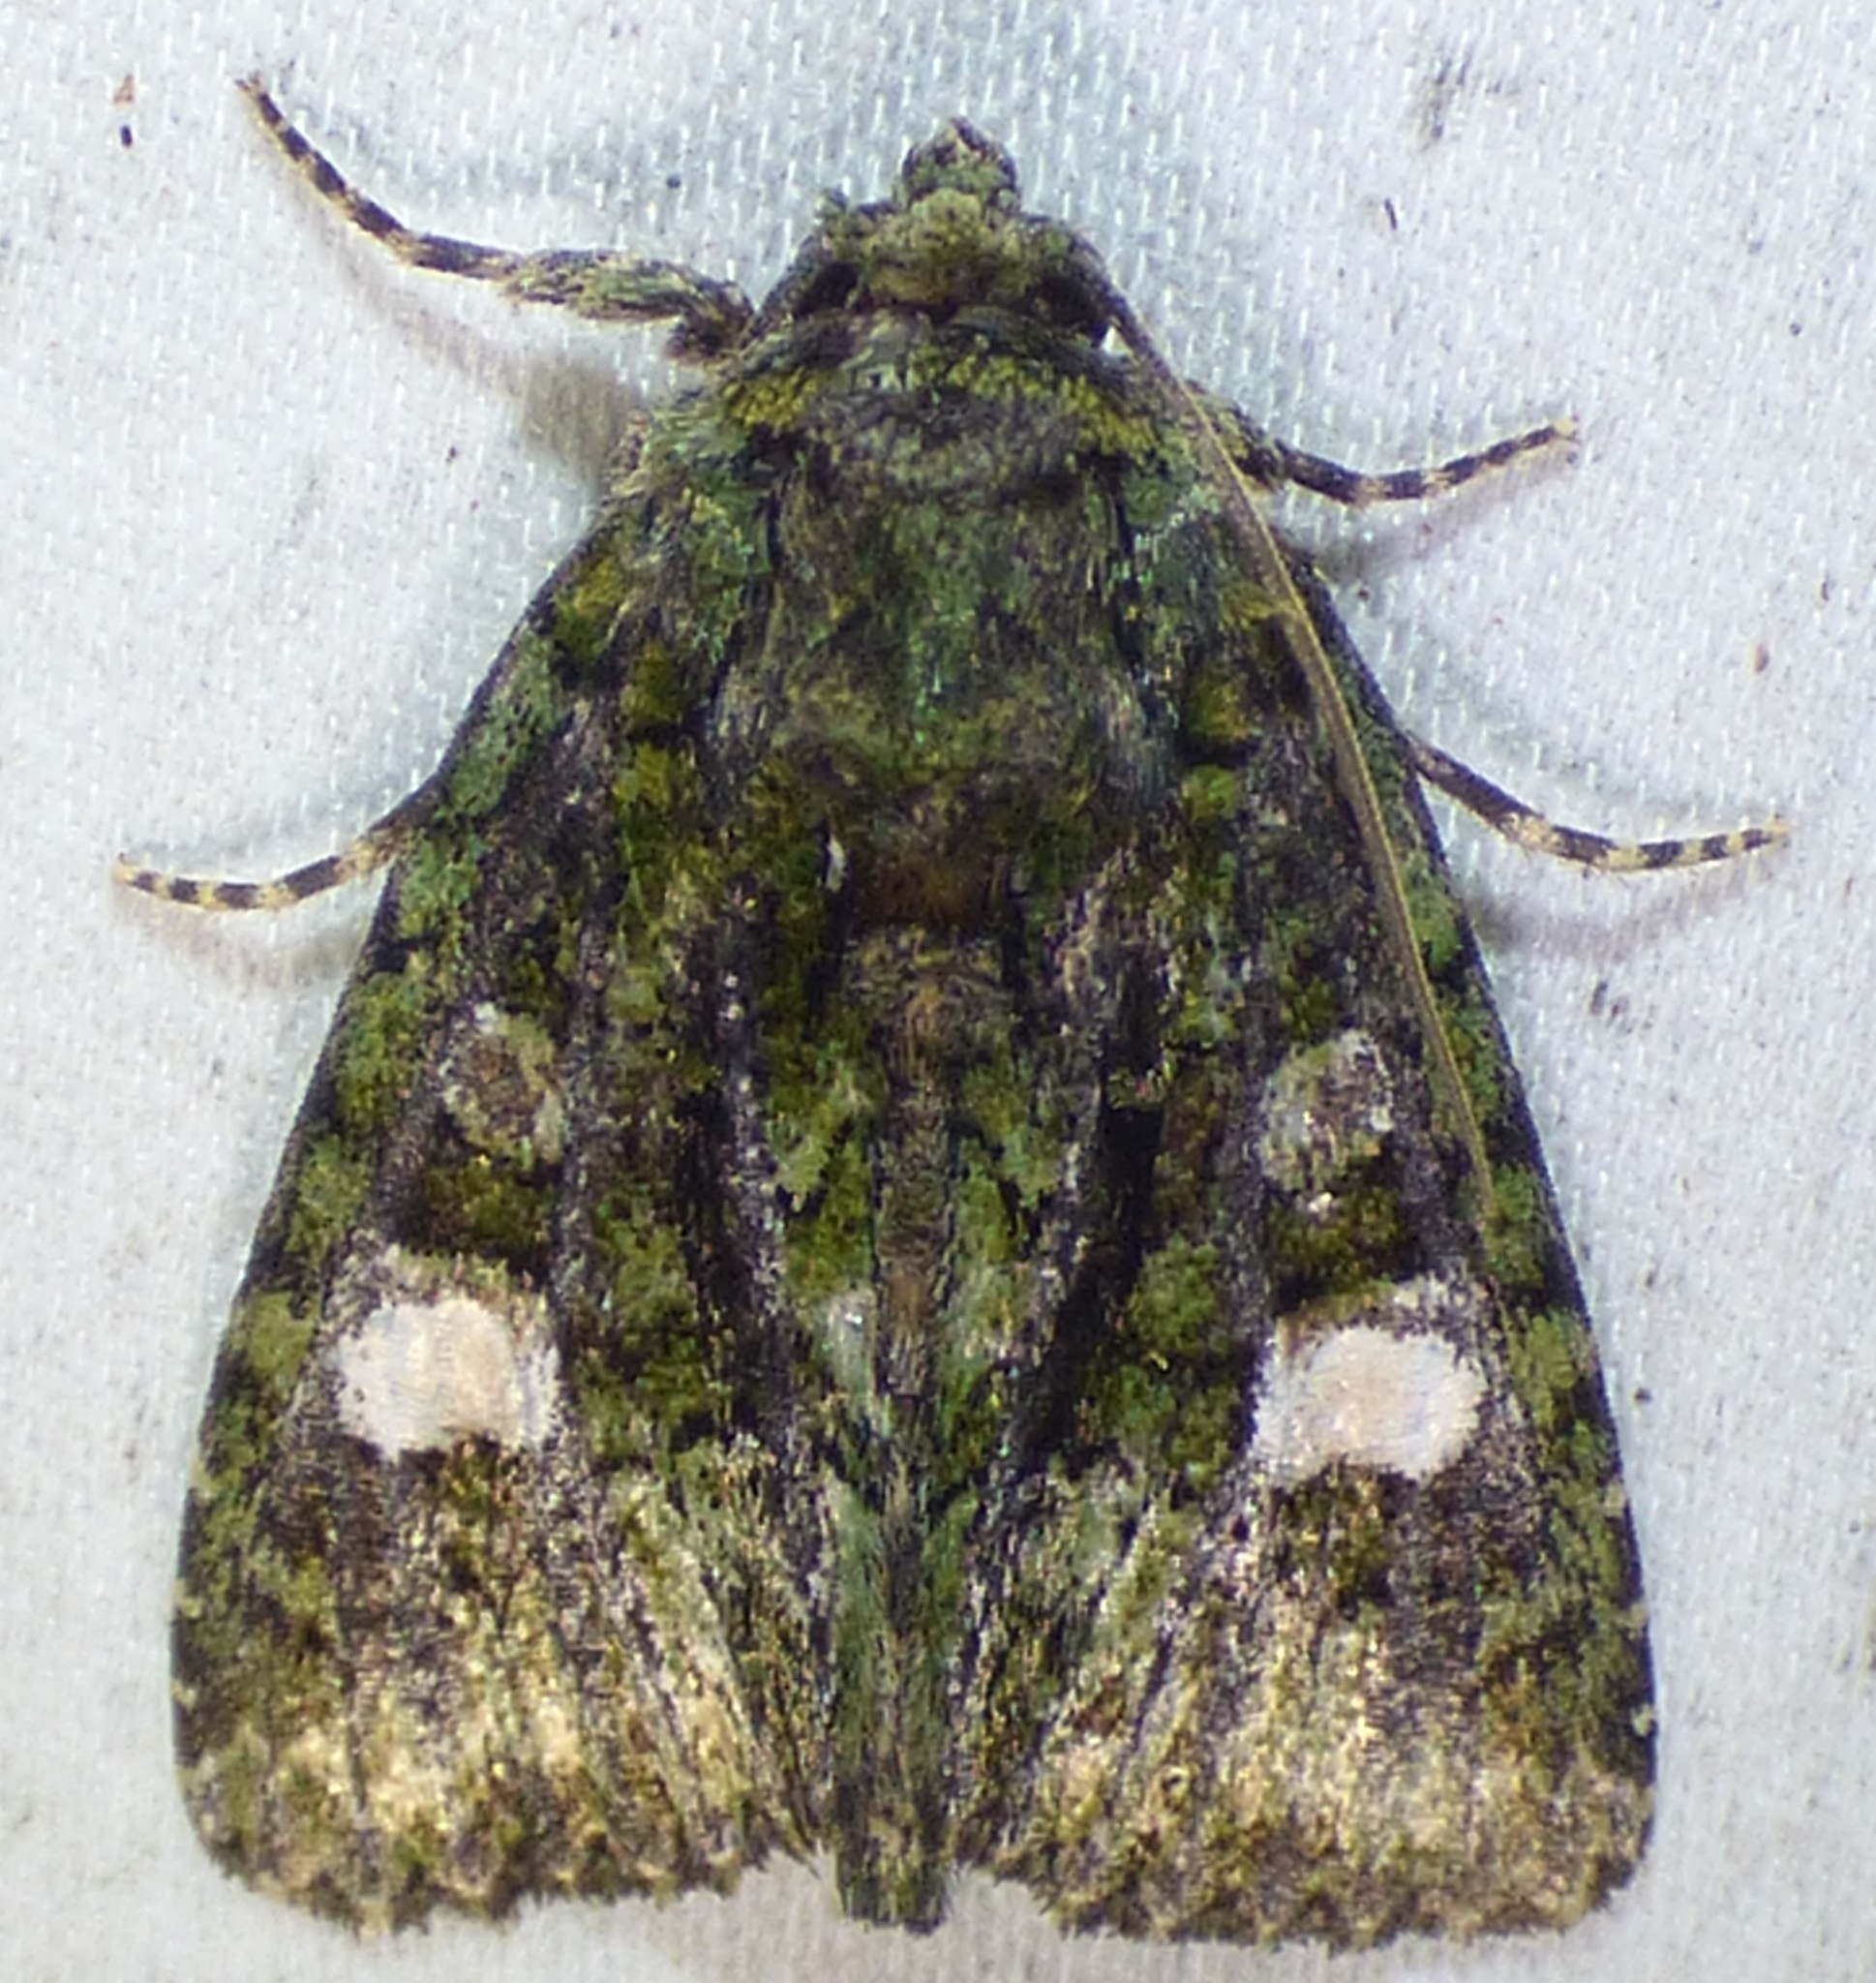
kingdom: Animalia
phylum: Arthropoda
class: Insecta
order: Lepidoptera
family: Noctuidae
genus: Phosphila
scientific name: Phosphila miselioides
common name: Spotted phosphila moth
